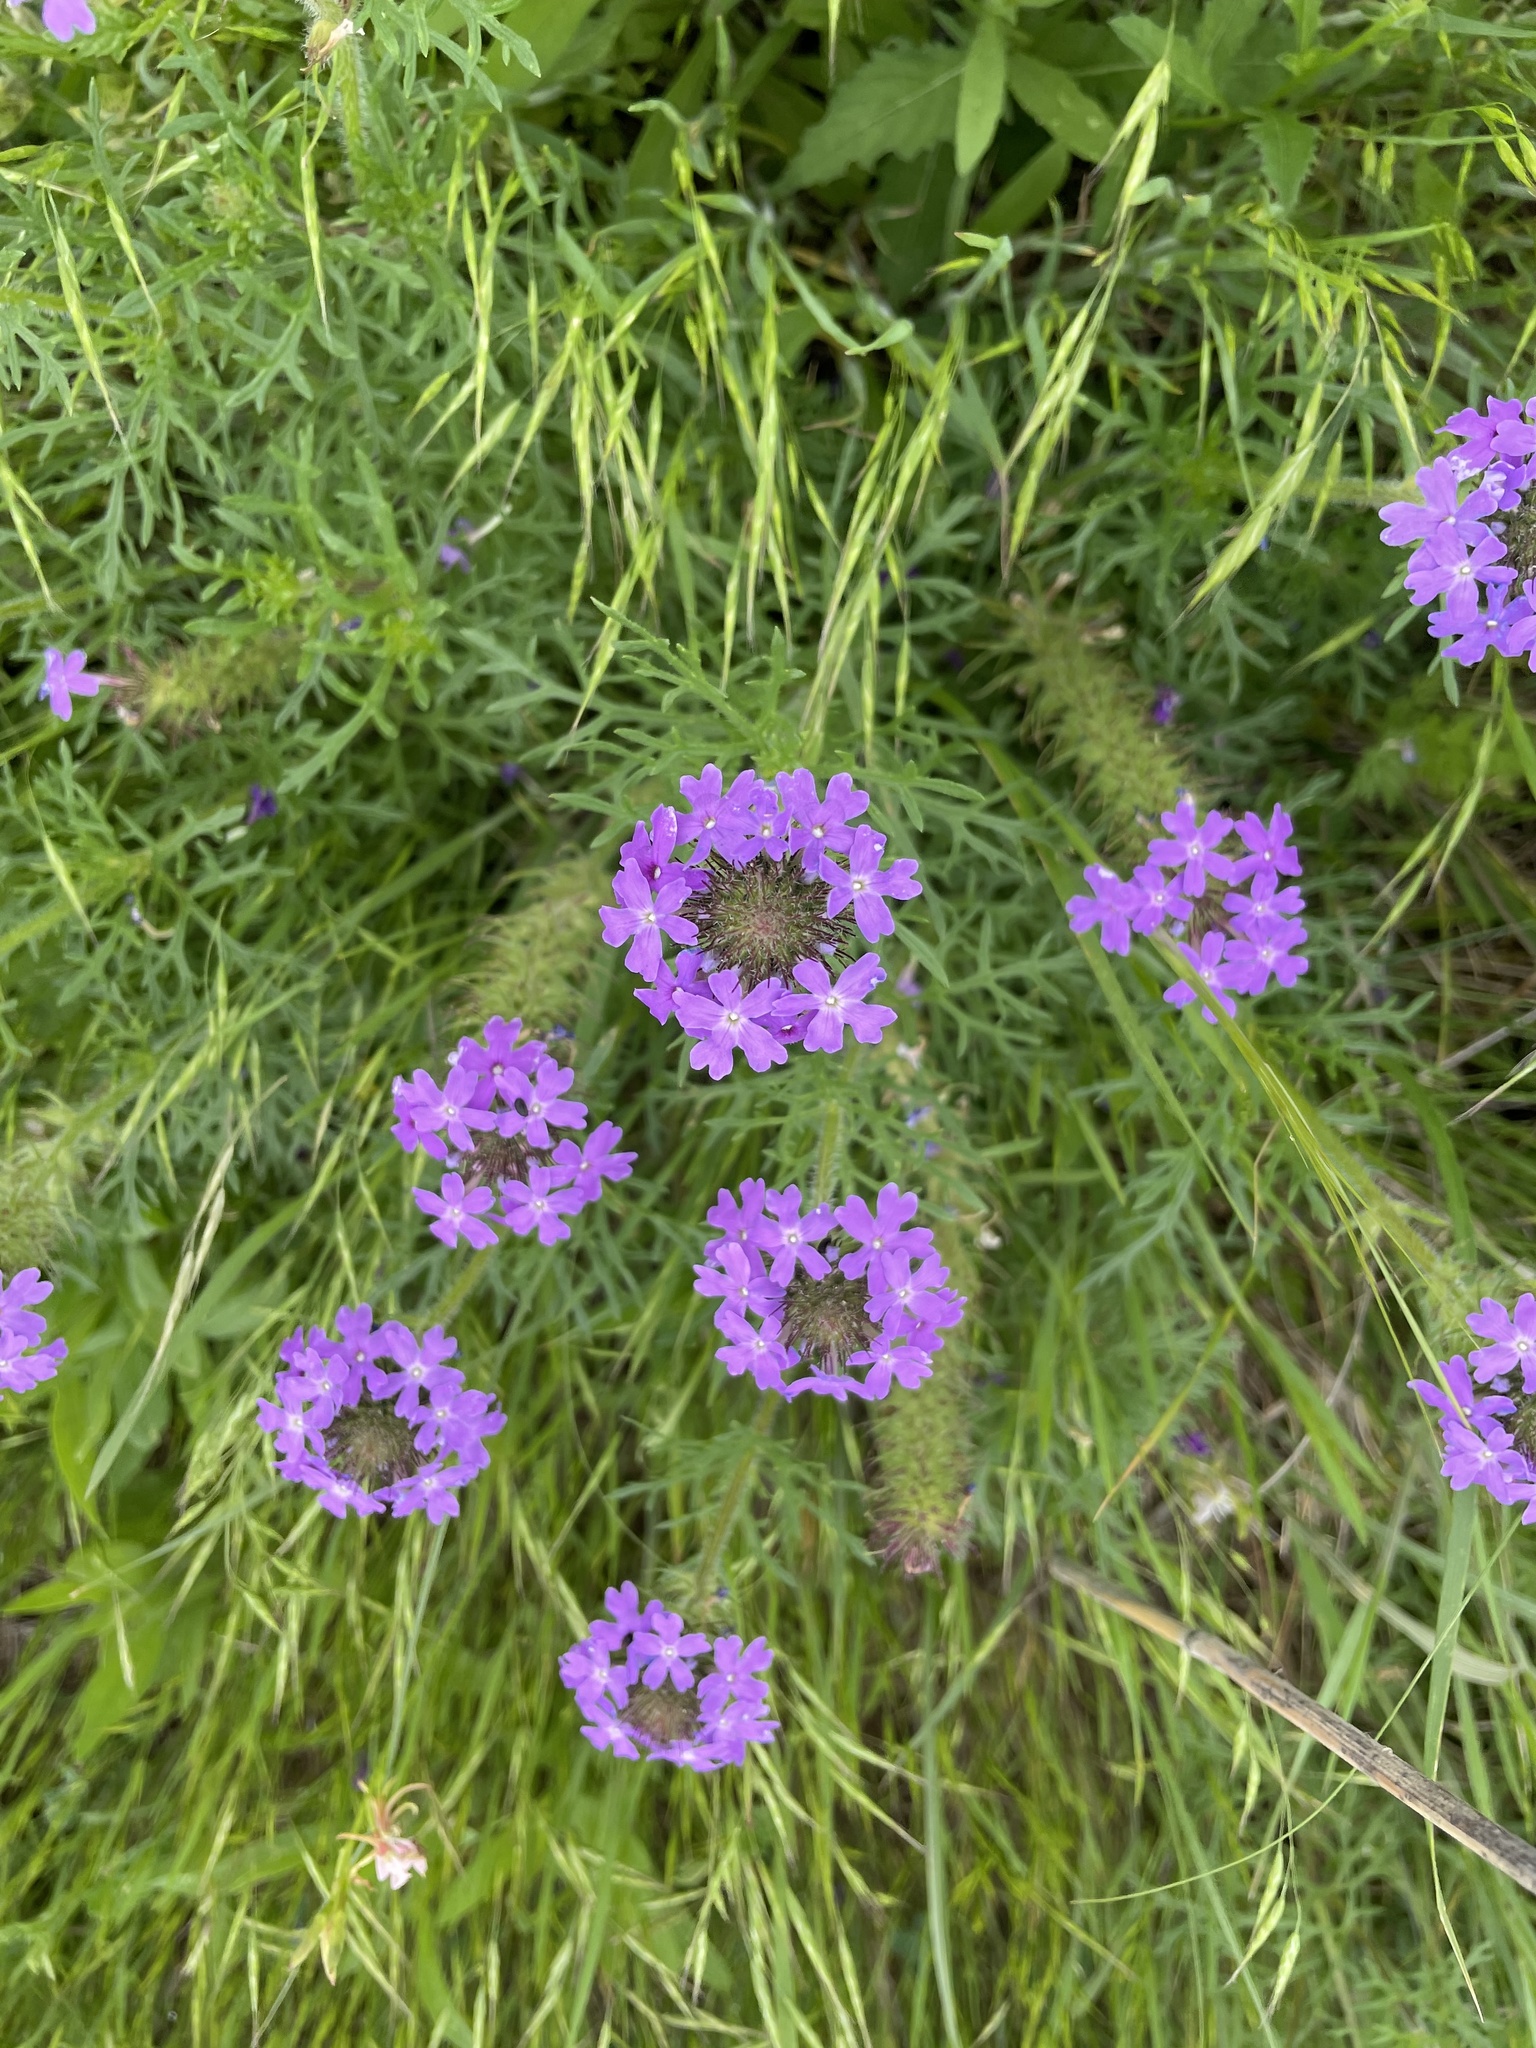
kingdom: Plantae
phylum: Tracheophyta
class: Magnoliopsida
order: Lamiales
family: Verbenaceae
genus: Verbena
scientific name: Verbena bipinnatifida
